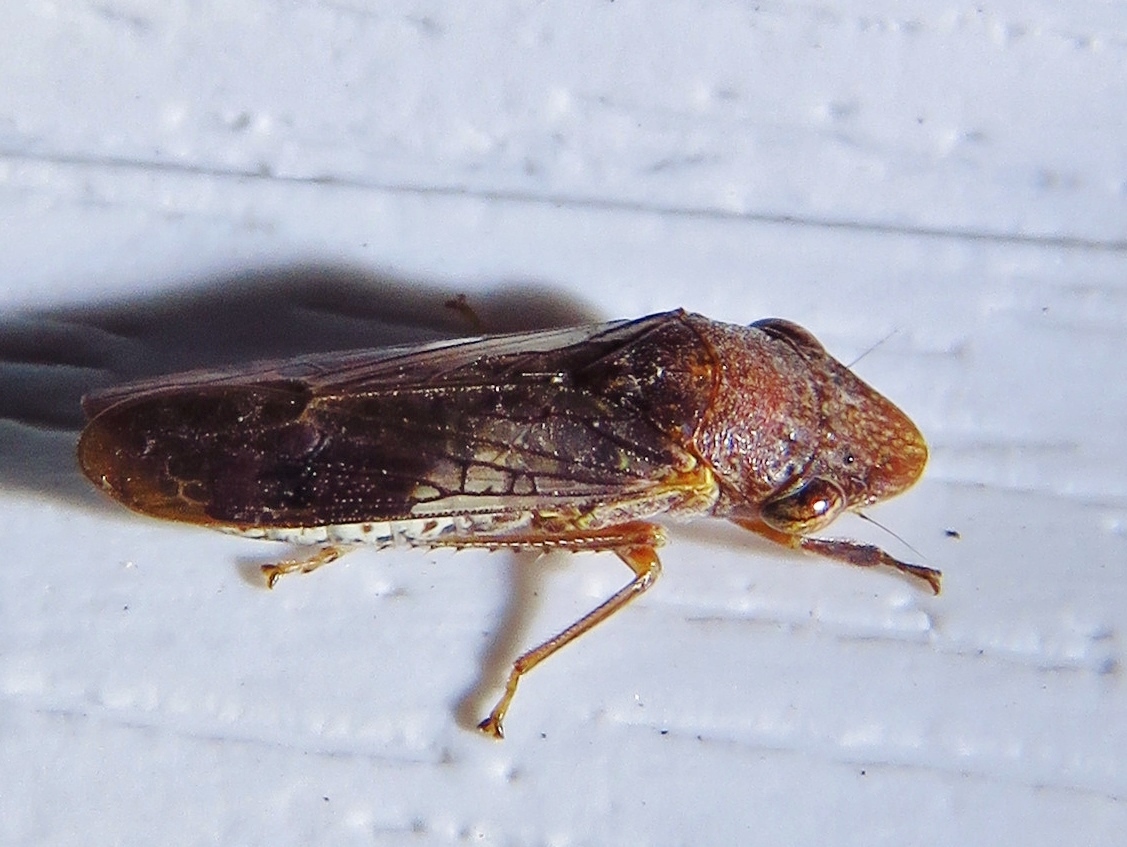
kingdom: Animalia
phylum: Arthropoda
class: Insecta
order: Hemiptera
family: Cicadellidae
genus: Homalodisca
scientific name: Homalodisca vitripennis
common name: Glassy-winged sharpshooter
